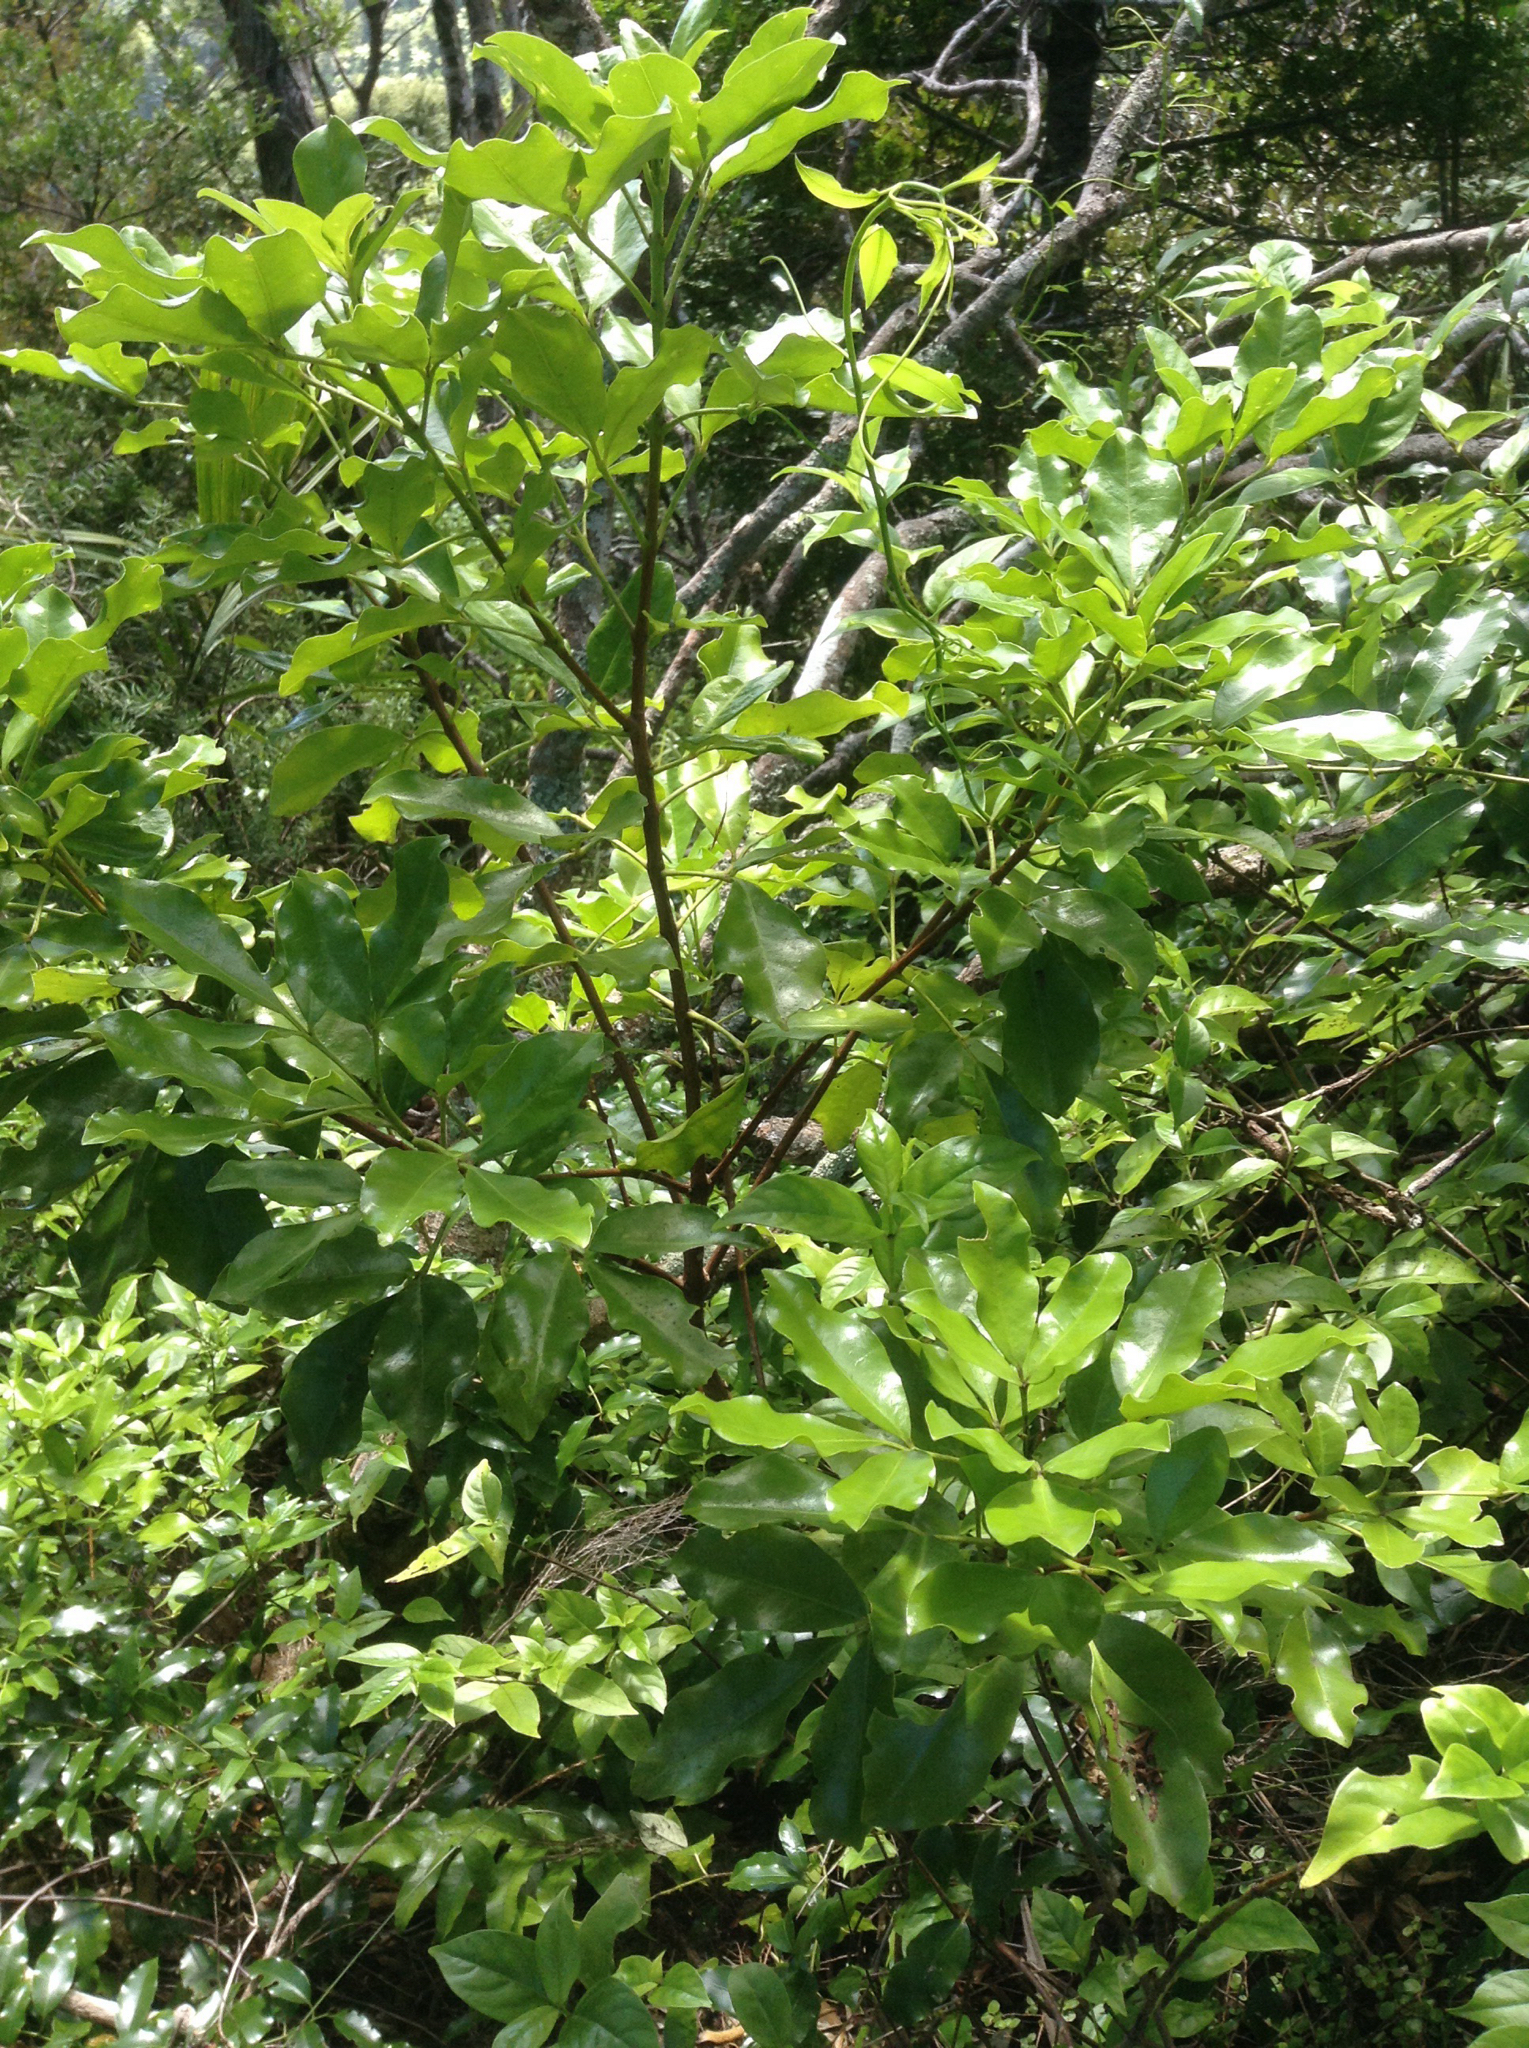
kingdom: Plantae
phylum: Tracheophyta
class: Magnoliopsida
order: Sapindales
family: Rutaceae
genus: Melicope
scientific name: Melicope ternata
